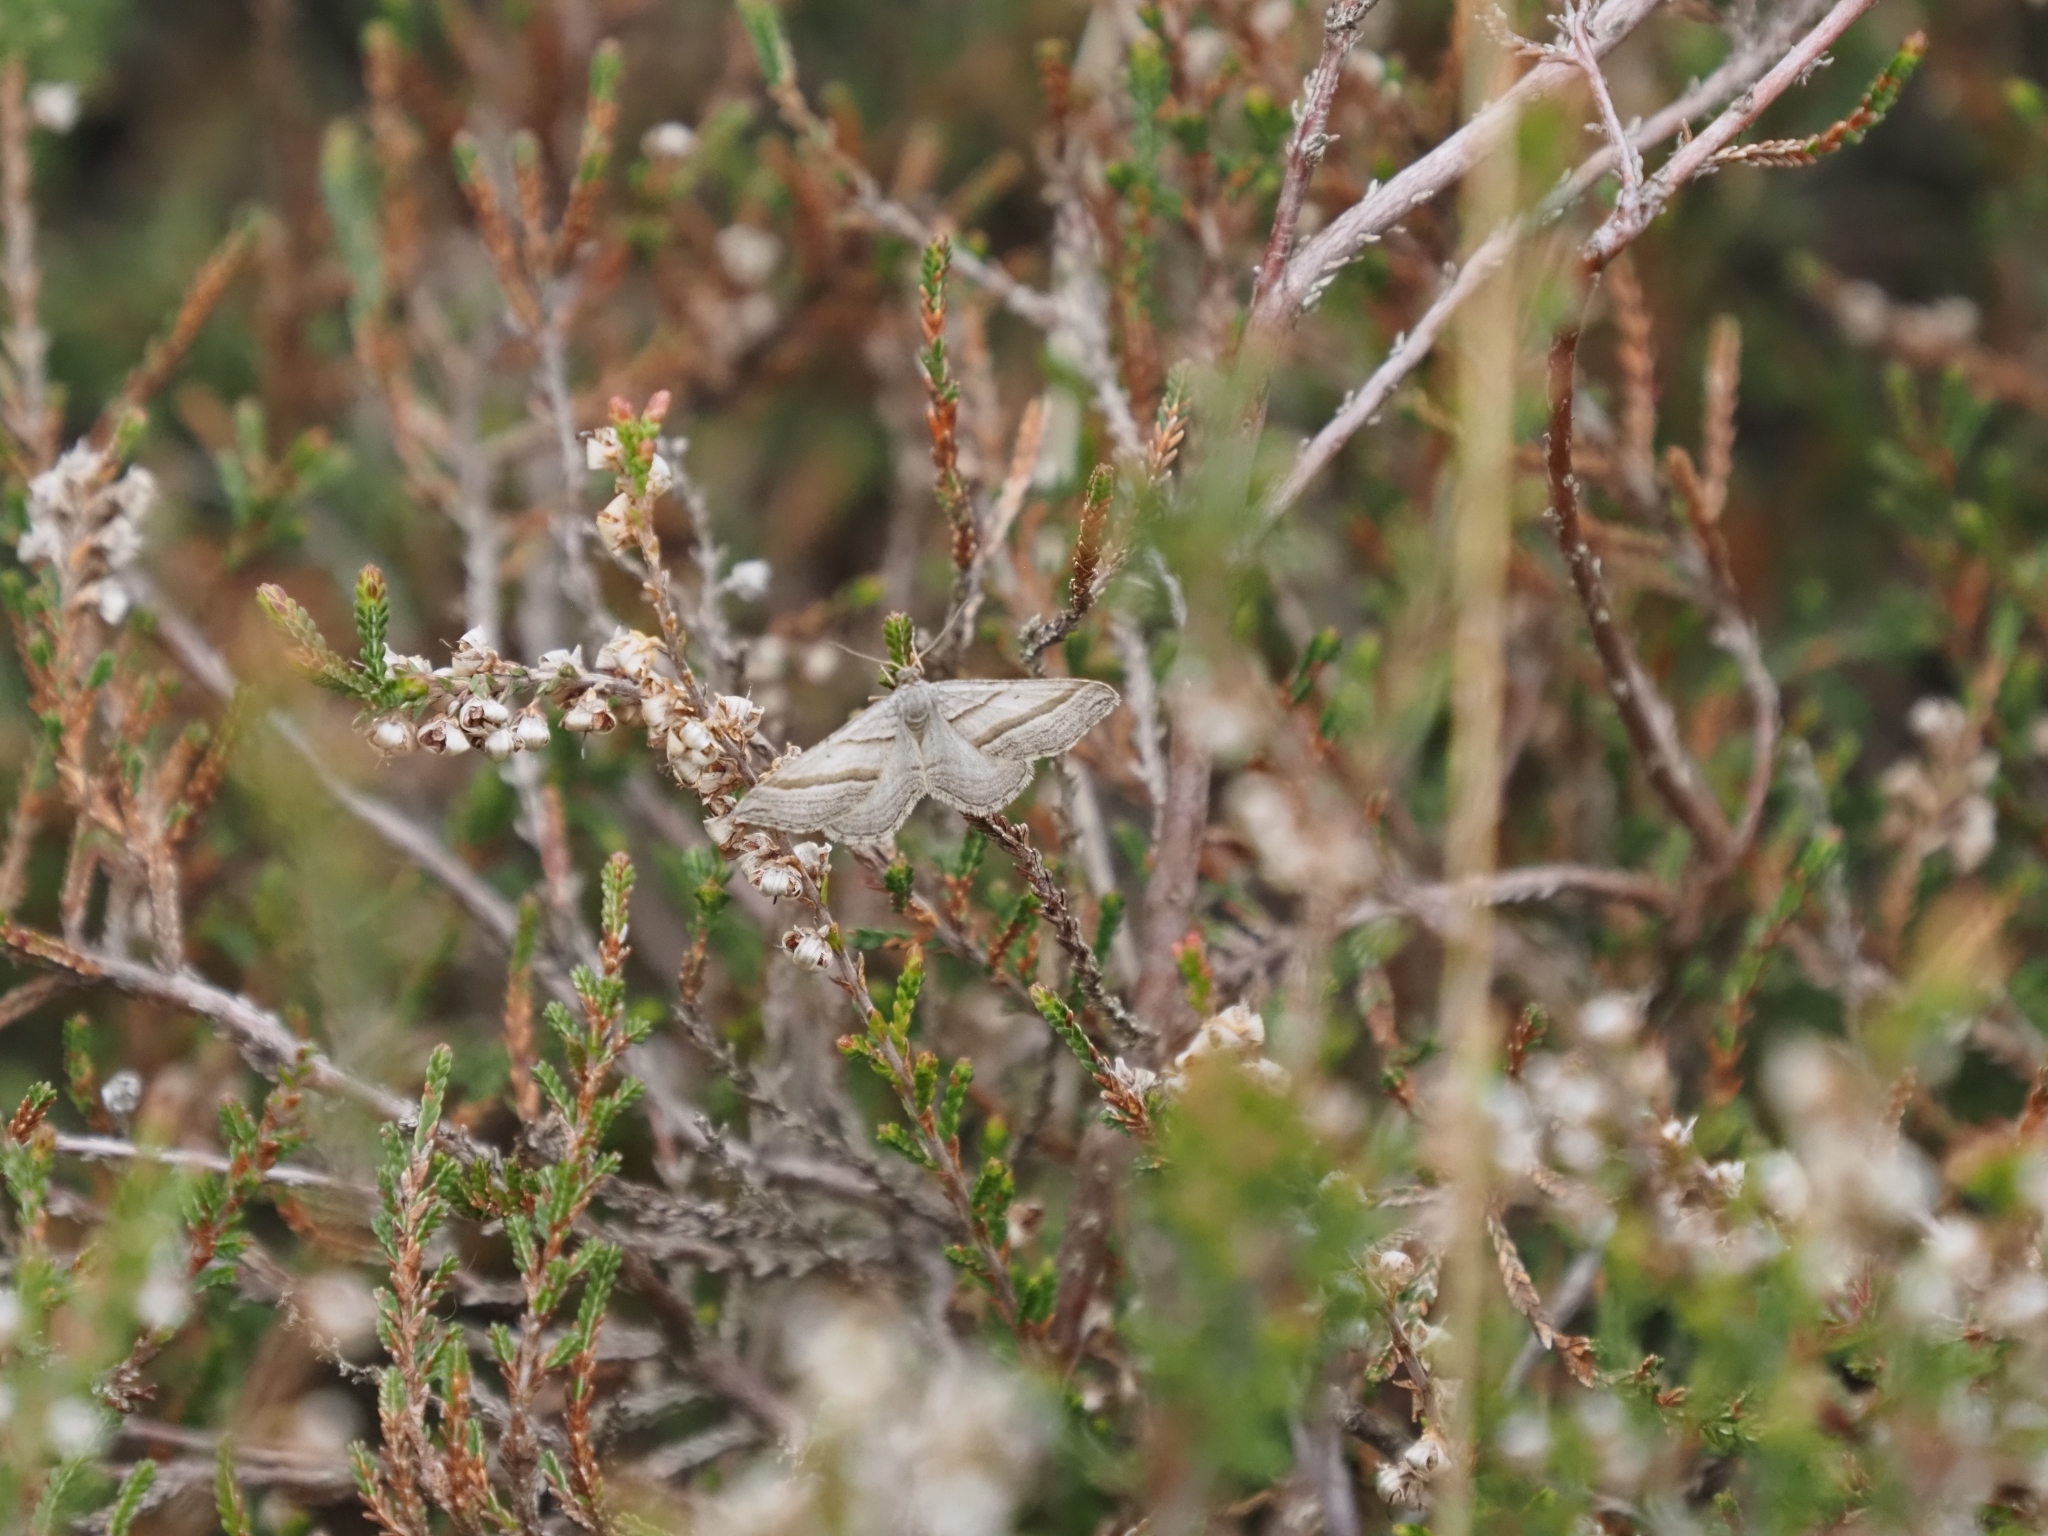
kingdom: Animalia
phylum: Arthropoda
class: Insecta
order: Lepidoptera
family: Geometridae
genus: Phibalapteryx
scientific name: Phibalapteryx virgata
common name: Oblique striped
